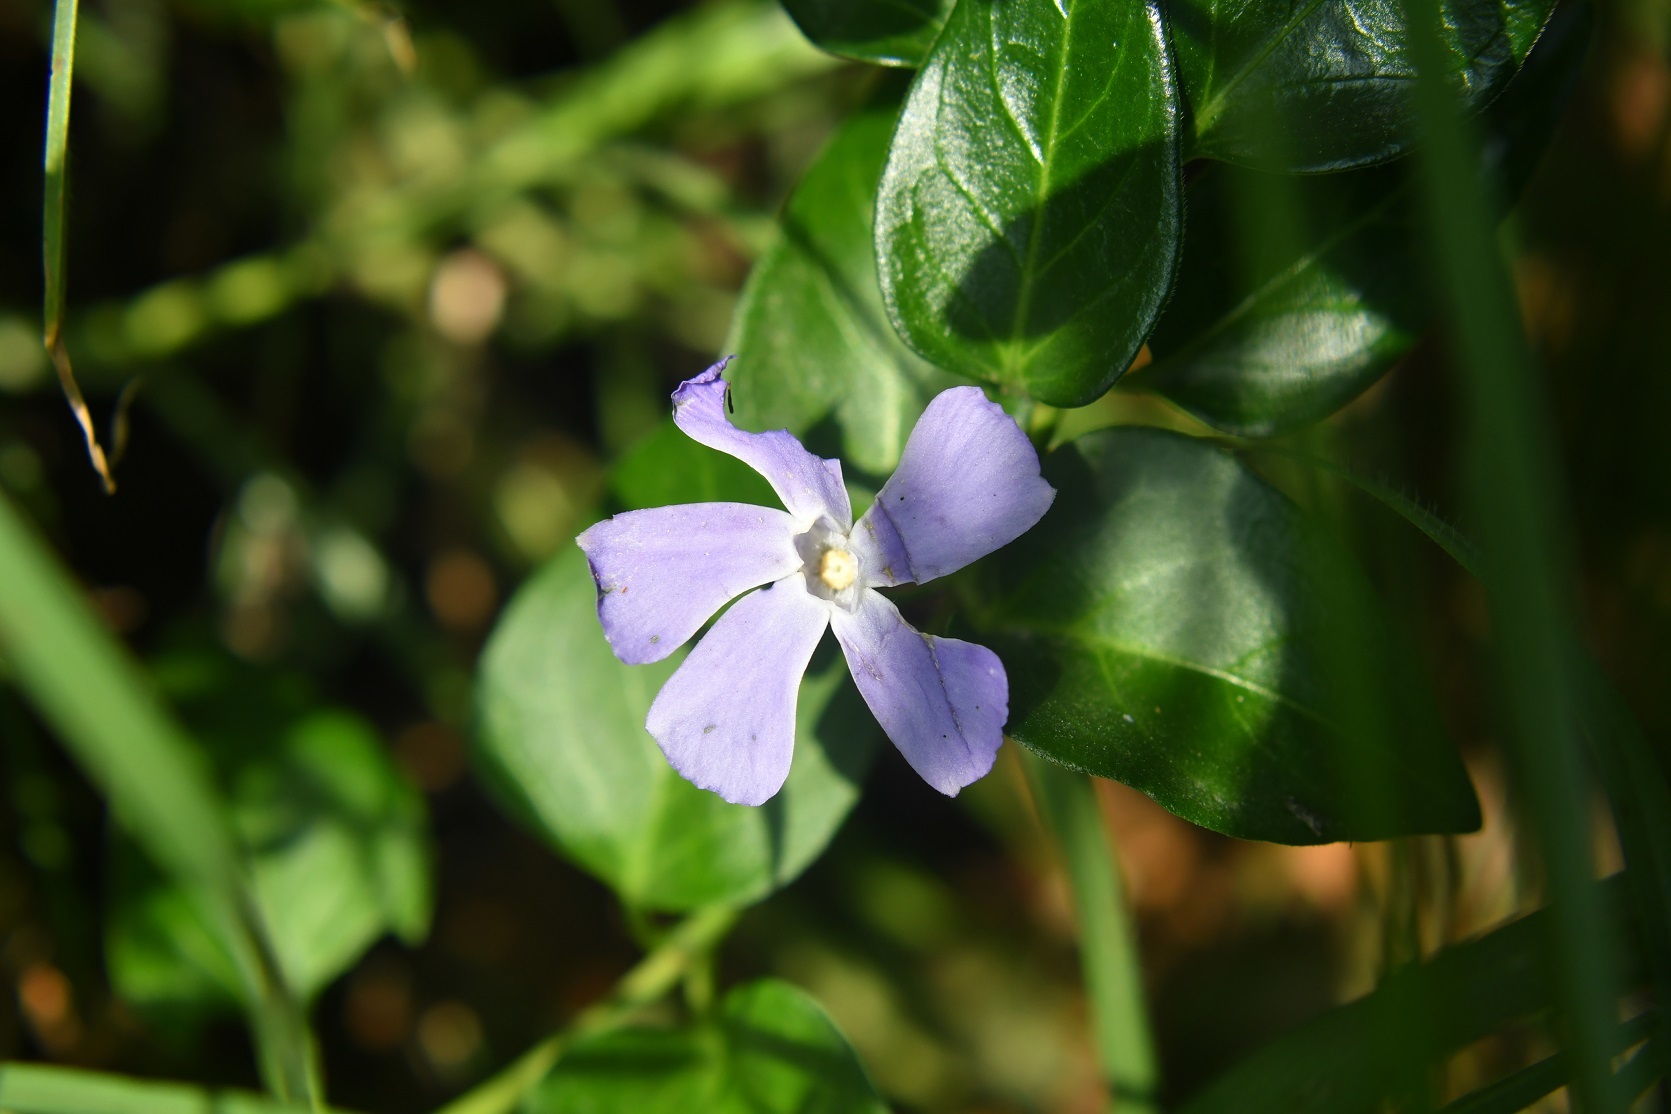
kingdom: Plantae
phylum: Tracheophyta
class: Magnoliopsida
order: Gentianales
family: Apocynaceae
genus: Vinca
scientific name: Vinca major
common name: Greater periwinkle
